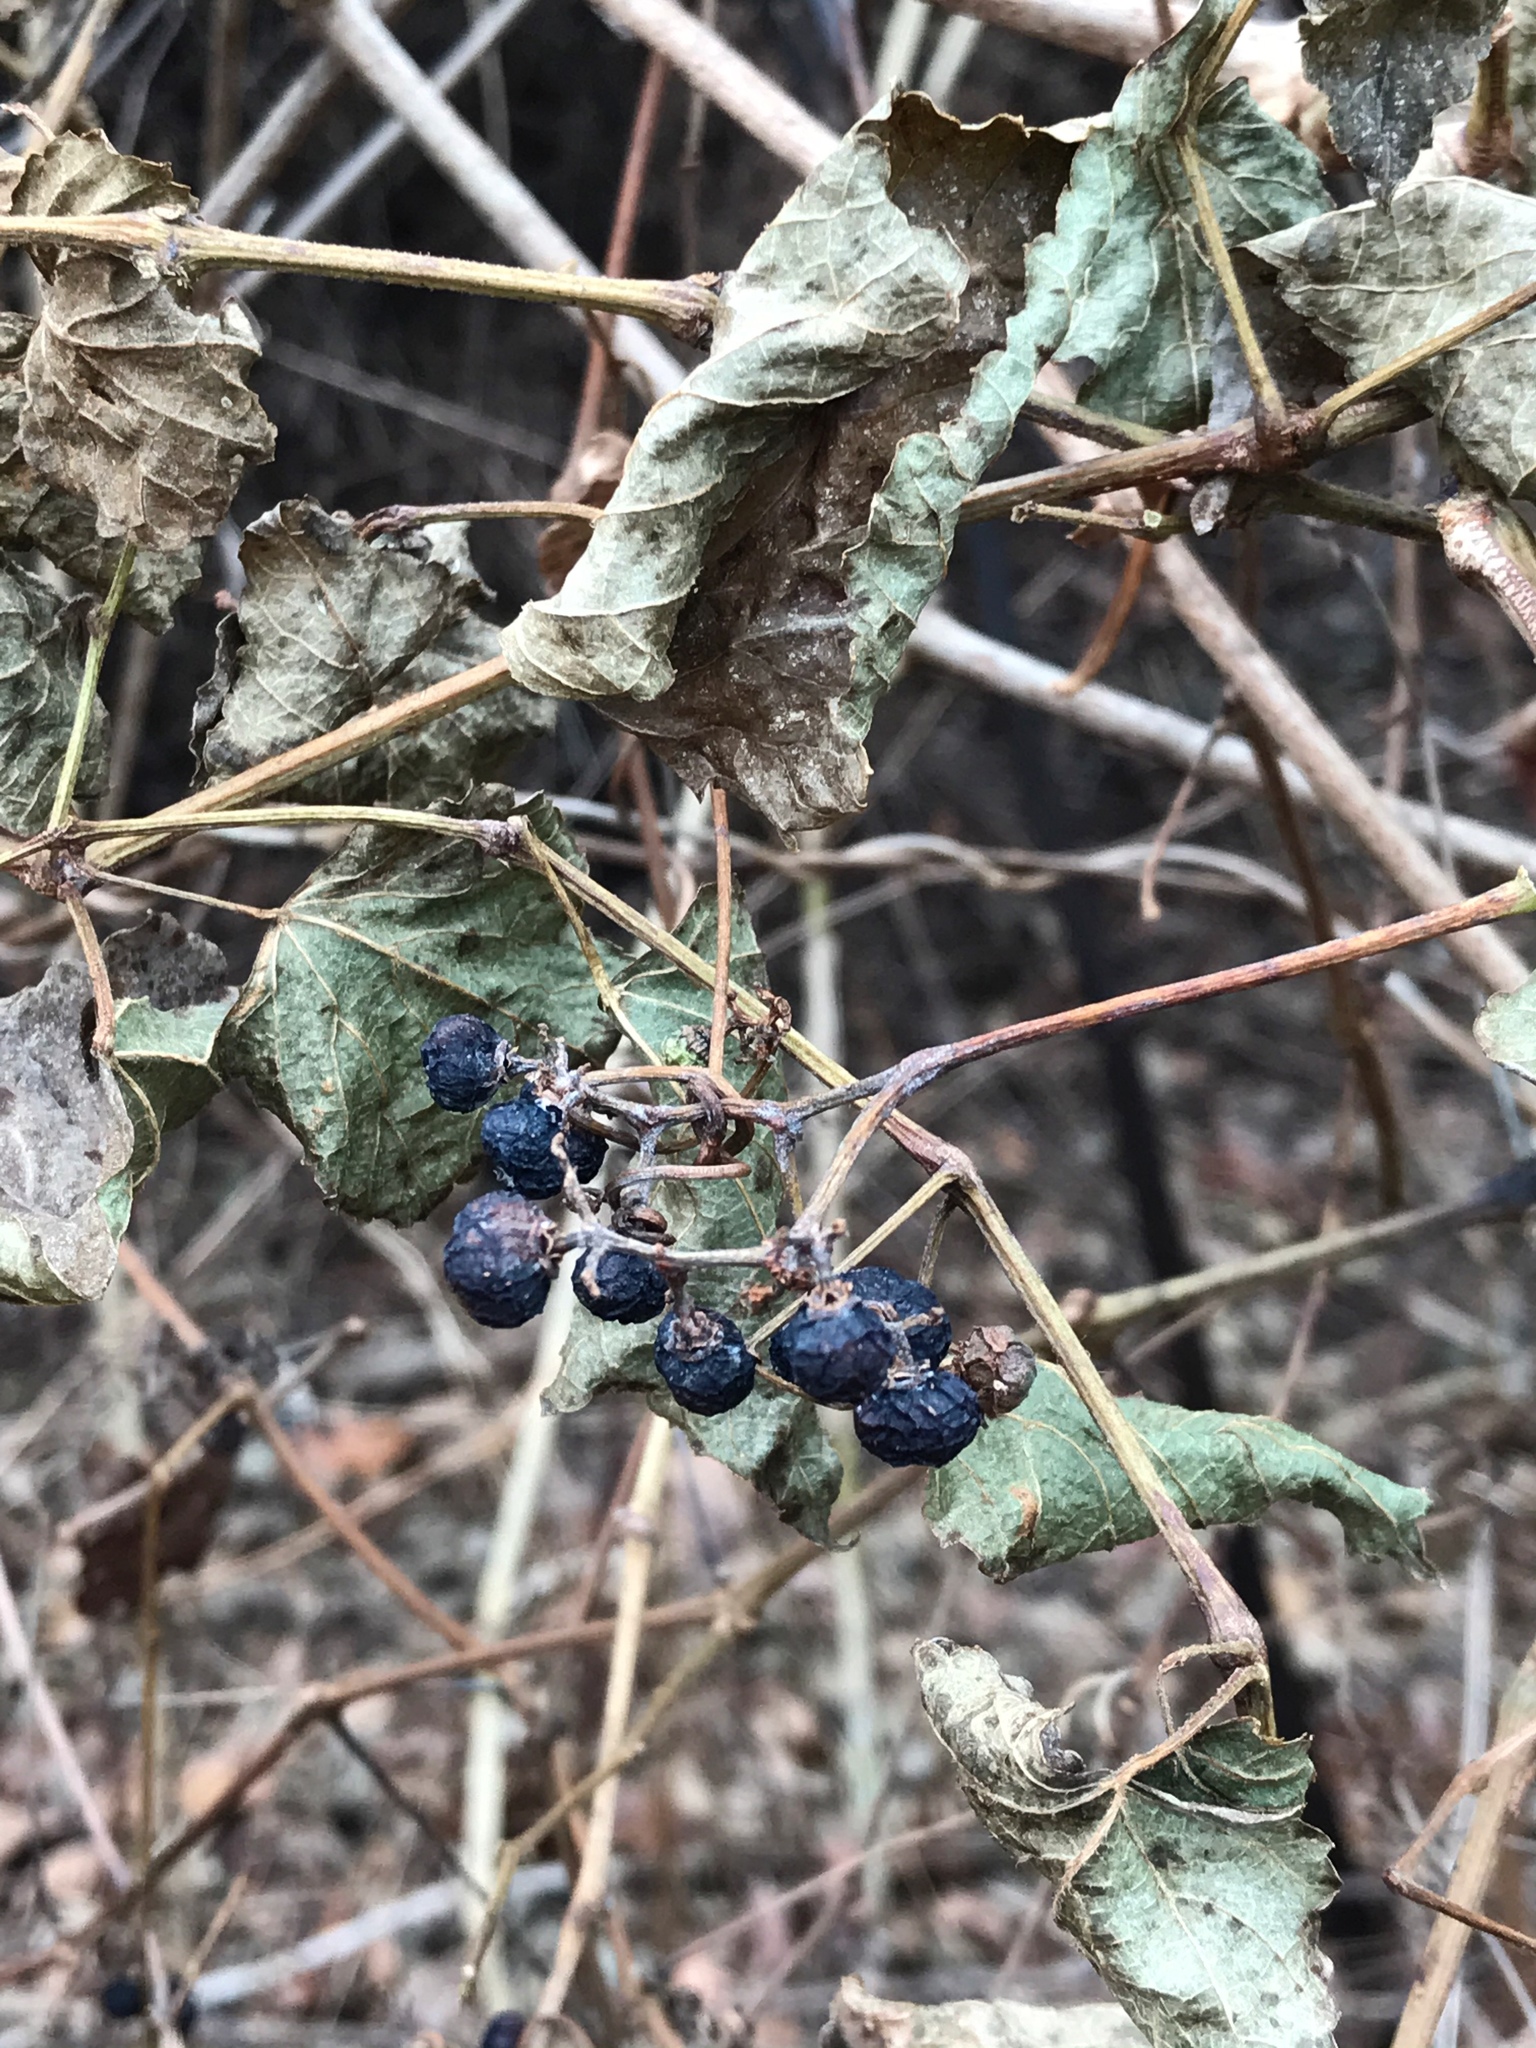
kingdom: Plantae
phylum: Tracheophyta
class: Magnoliopsida
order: Vitales
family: Vitaceae
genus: Ampelopsis
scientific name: Ampelopsis glandulosa
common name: Amur peppervine
